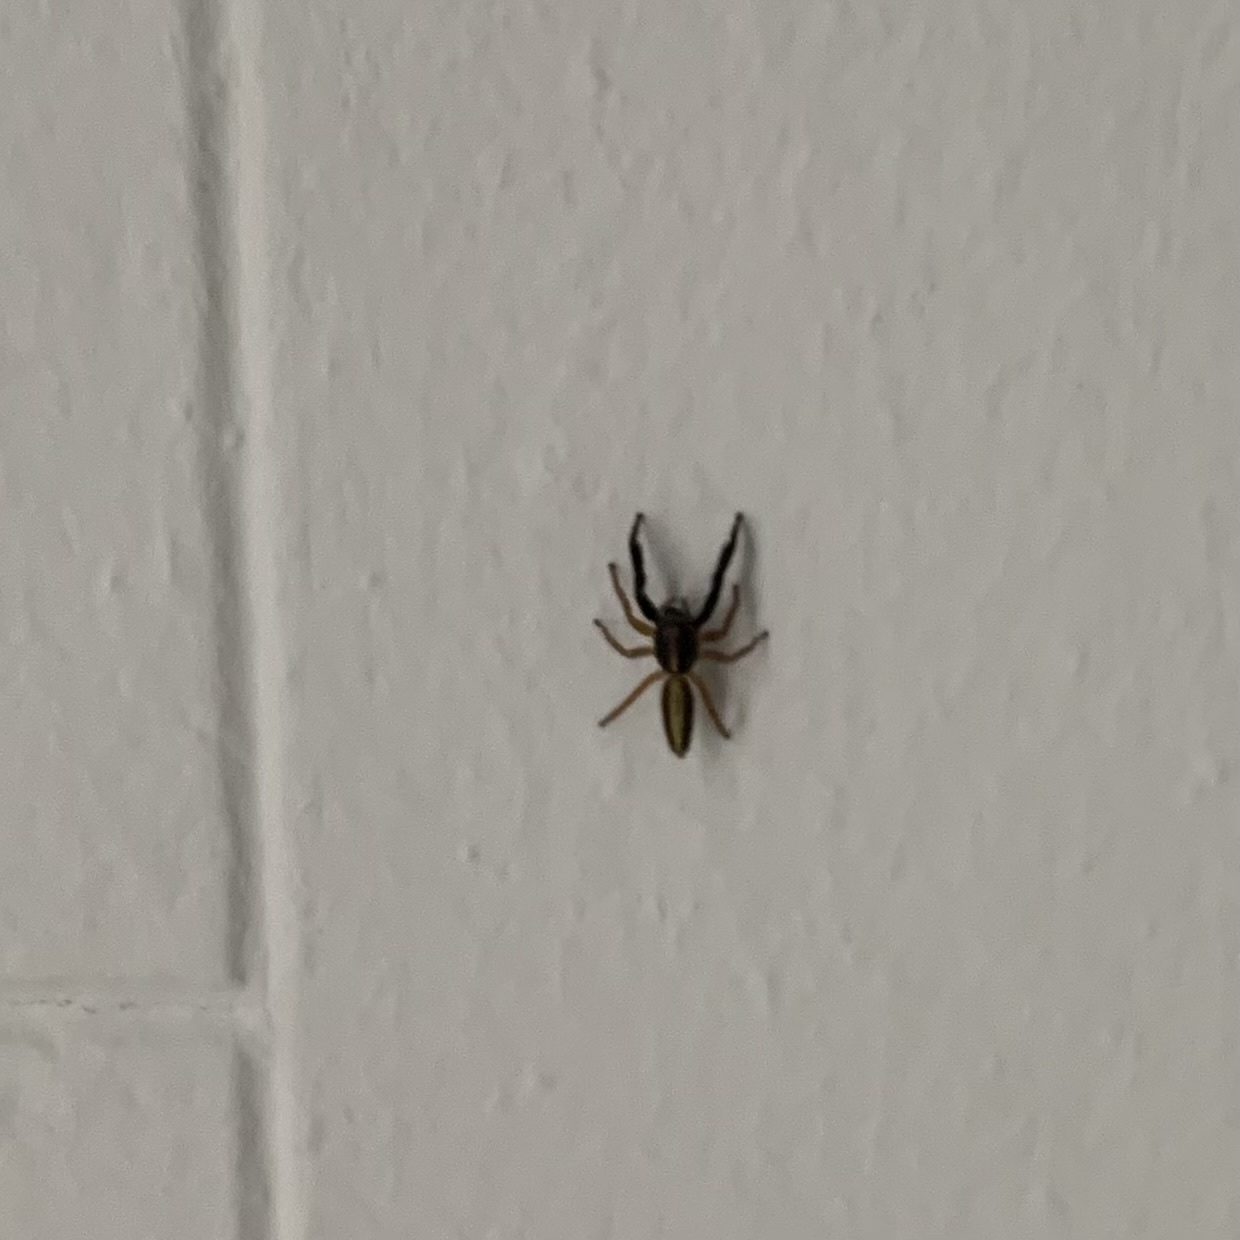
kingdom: Animalia
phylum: Arthropoda
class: Arachnida
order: Araneae
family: Salticidae
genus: Trite
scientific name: Trite planiceps
